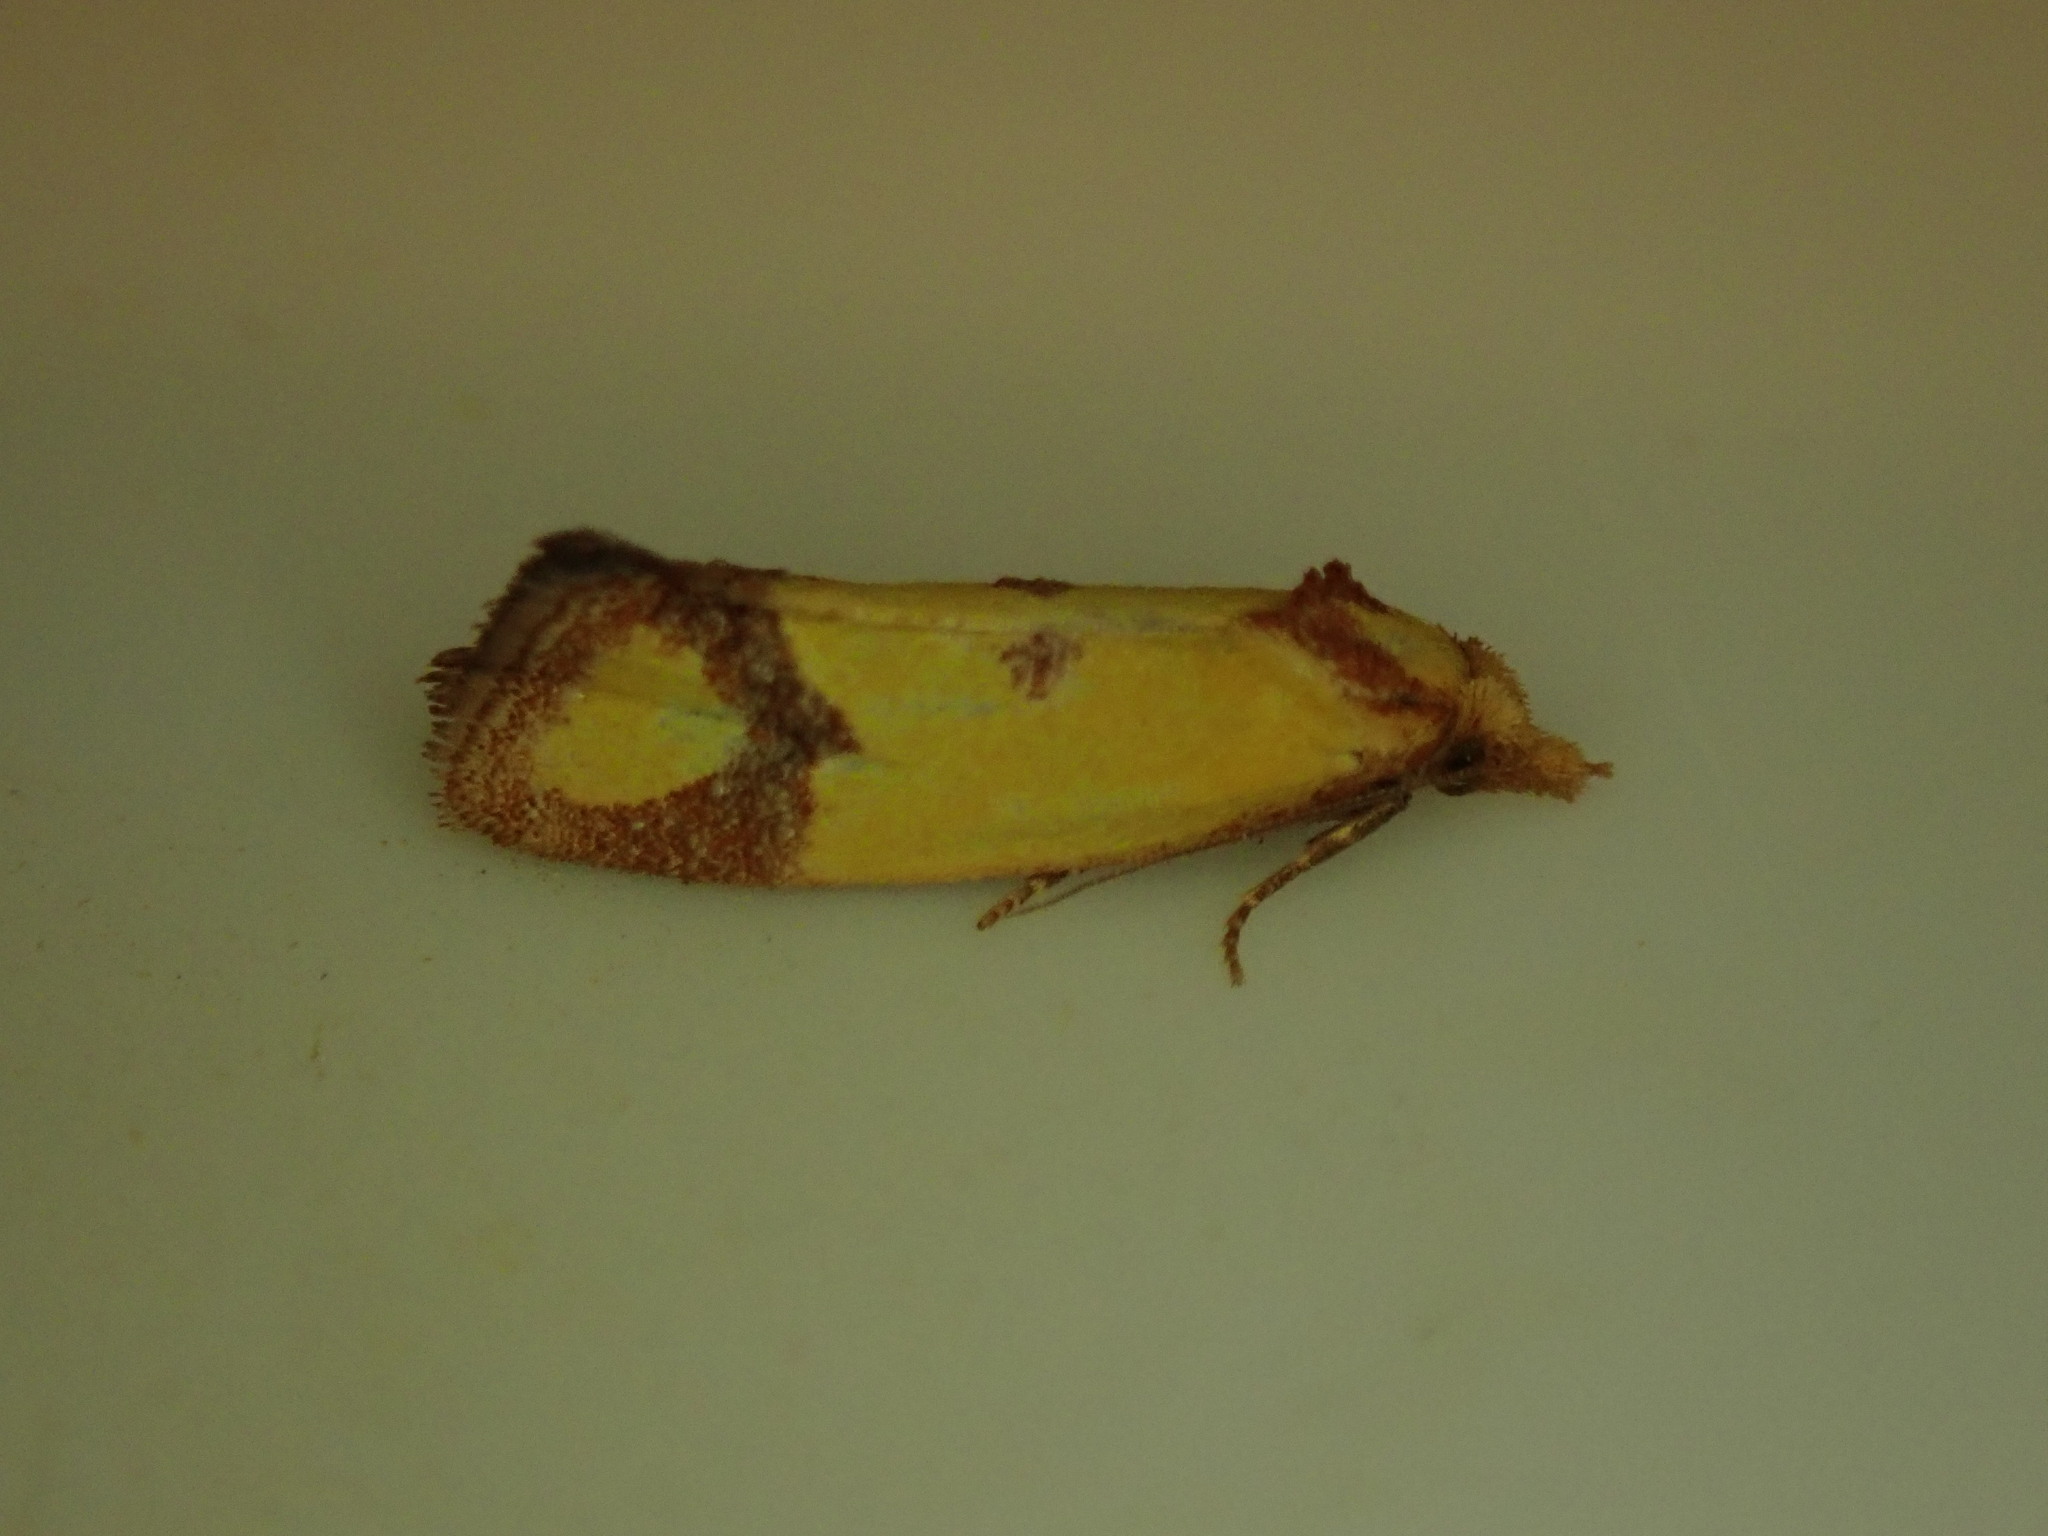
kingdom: Animalia
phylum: Arthropoda
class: Insecta
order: Lepidoptera
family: Tortricidae
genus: Agapeta
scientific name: Agapeta zoegana
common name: Sulfur knapweed root moth
